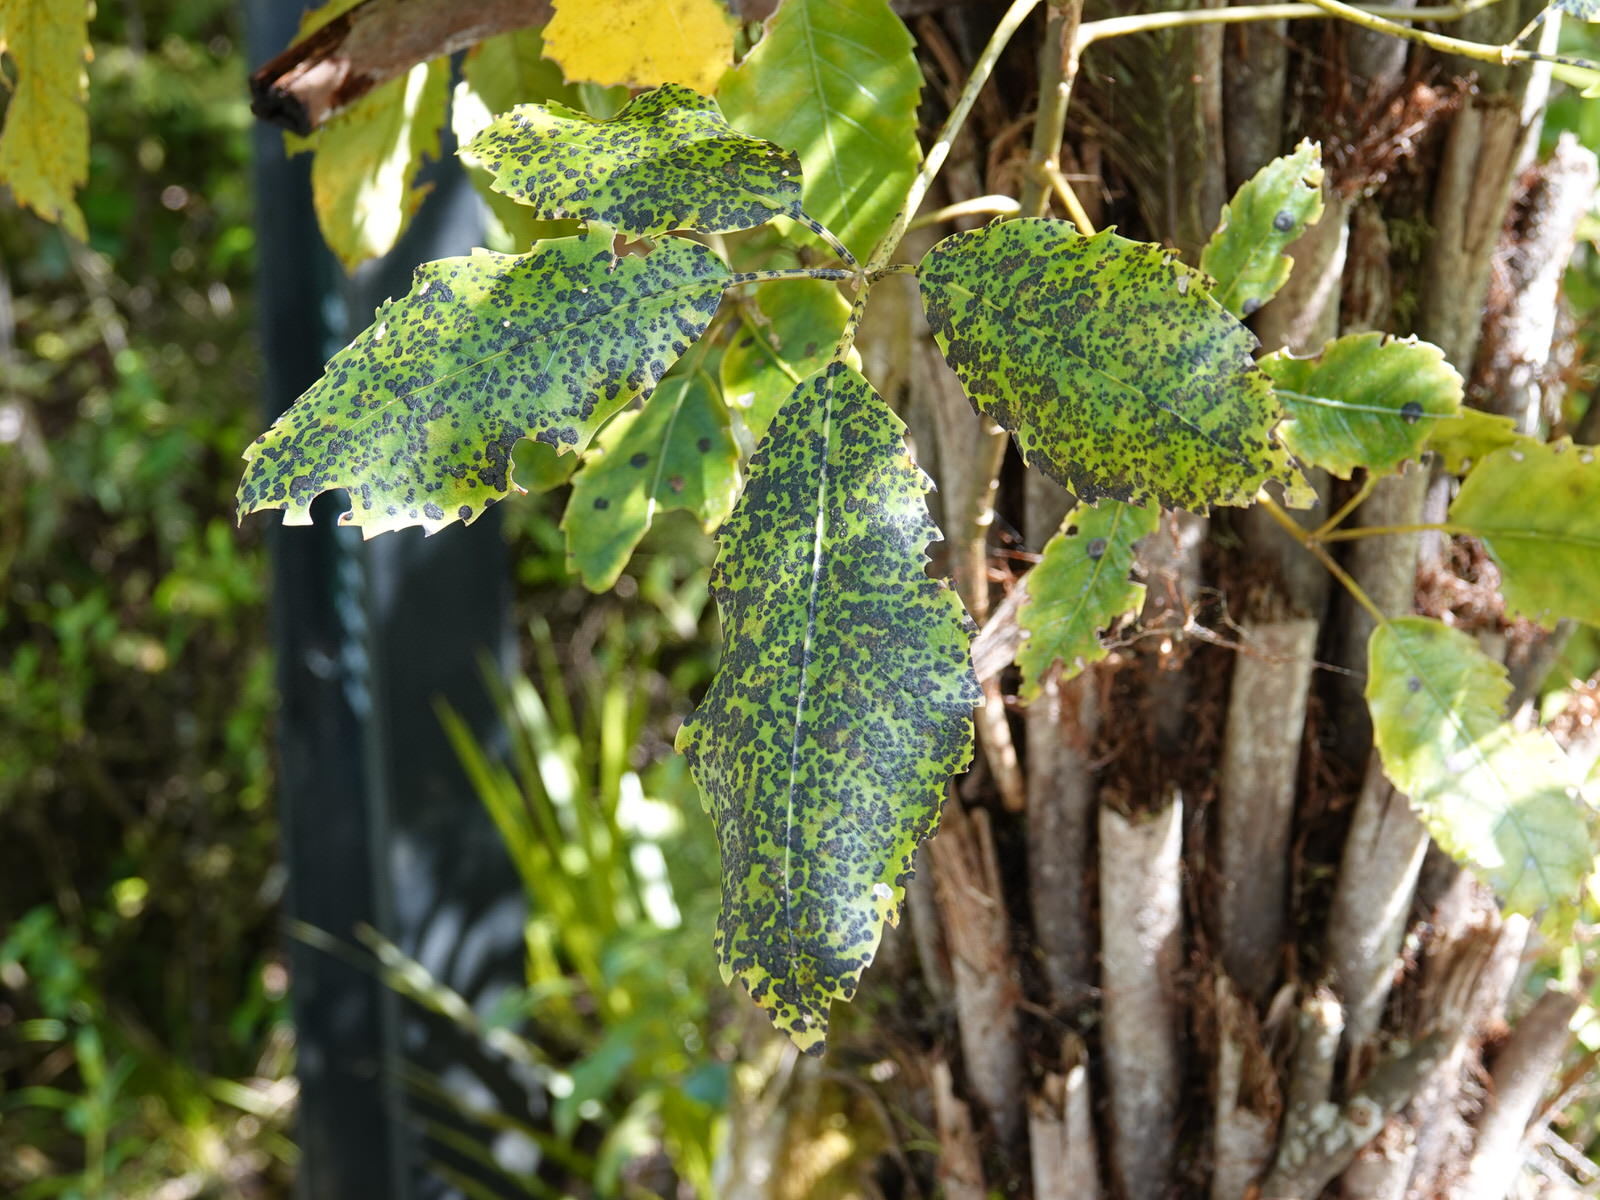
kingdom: Fungi
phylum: Ascomycota
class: Dothideomycetes
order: Asterinales
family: Asterinaceae
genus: Placosoma
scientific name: Placosoma nothopanacis
